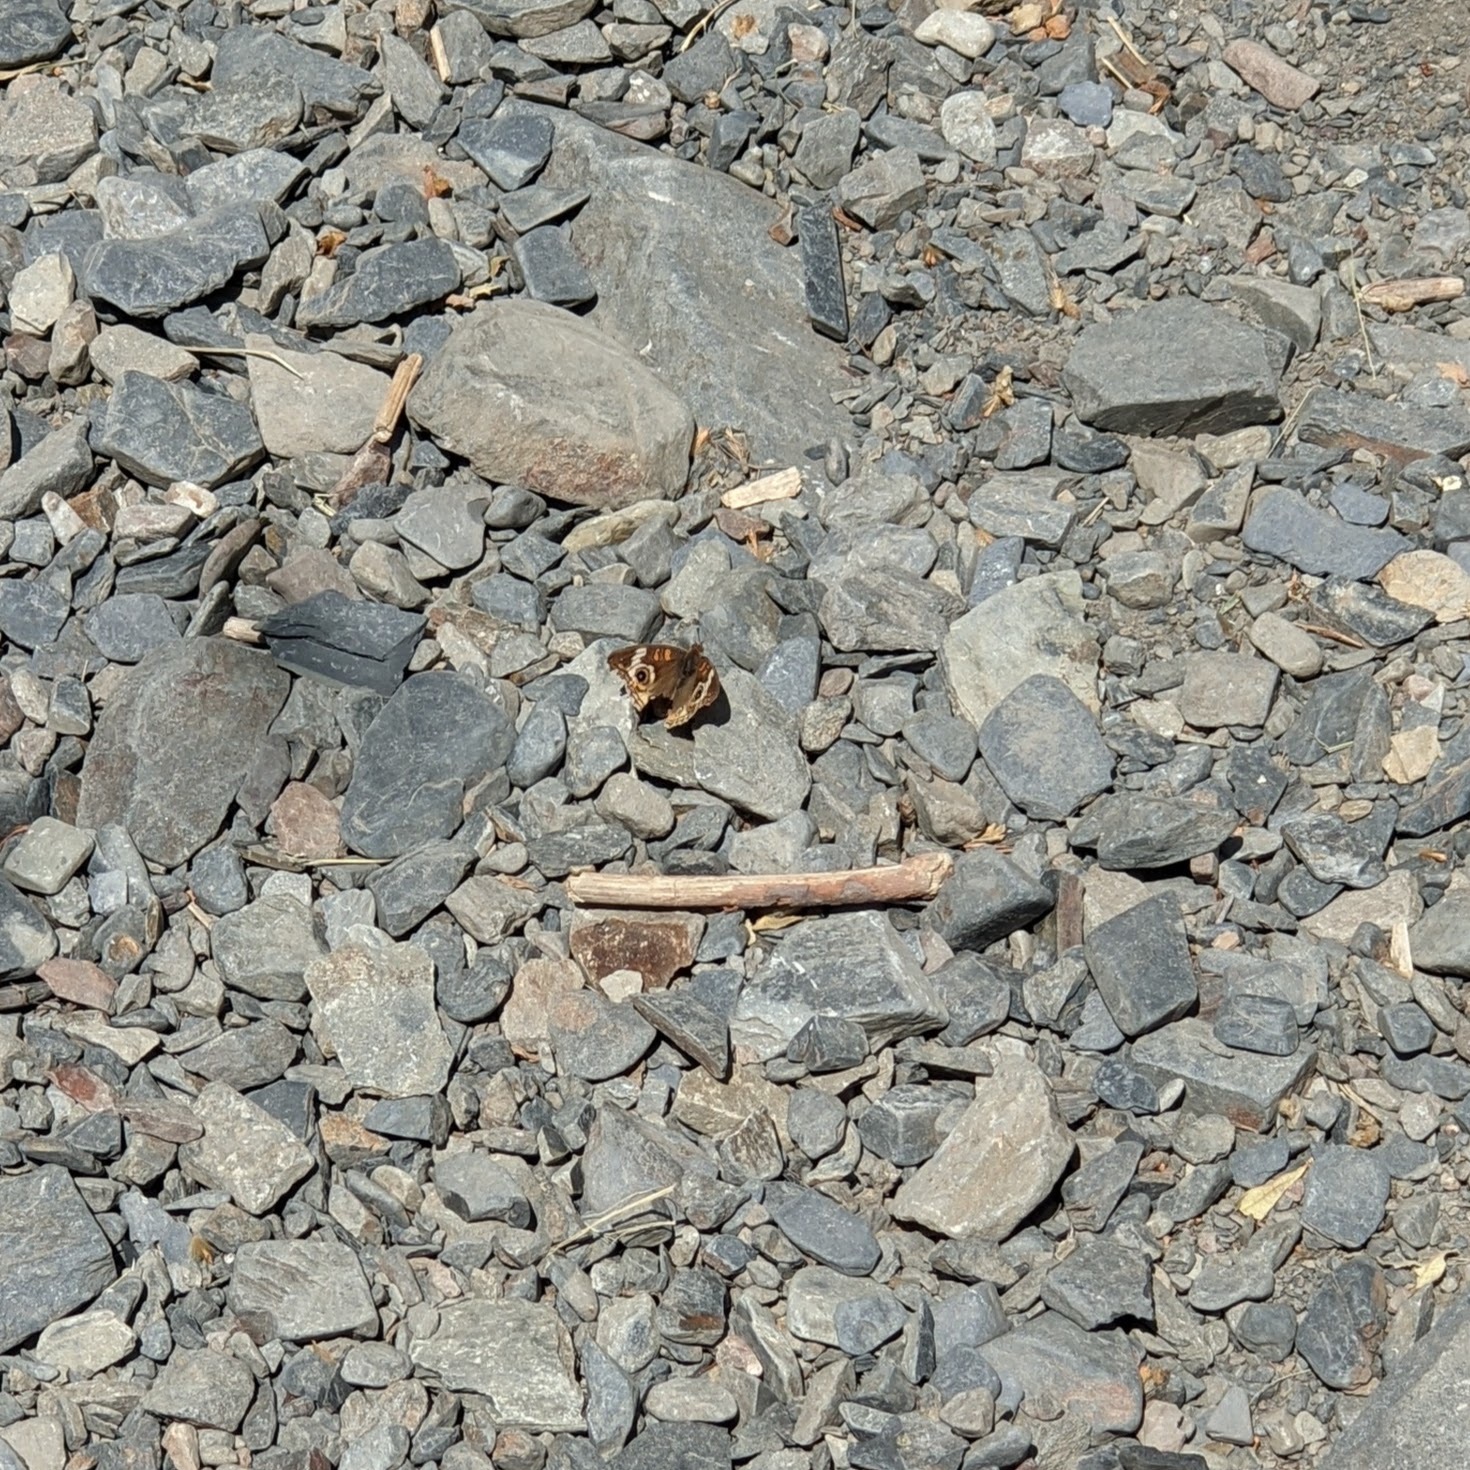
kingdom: Animalia
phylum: Arthropoda
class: Insecta
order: Lepidoptera
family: Nymphalidae
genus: Junonia
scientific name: Junonia grisea
